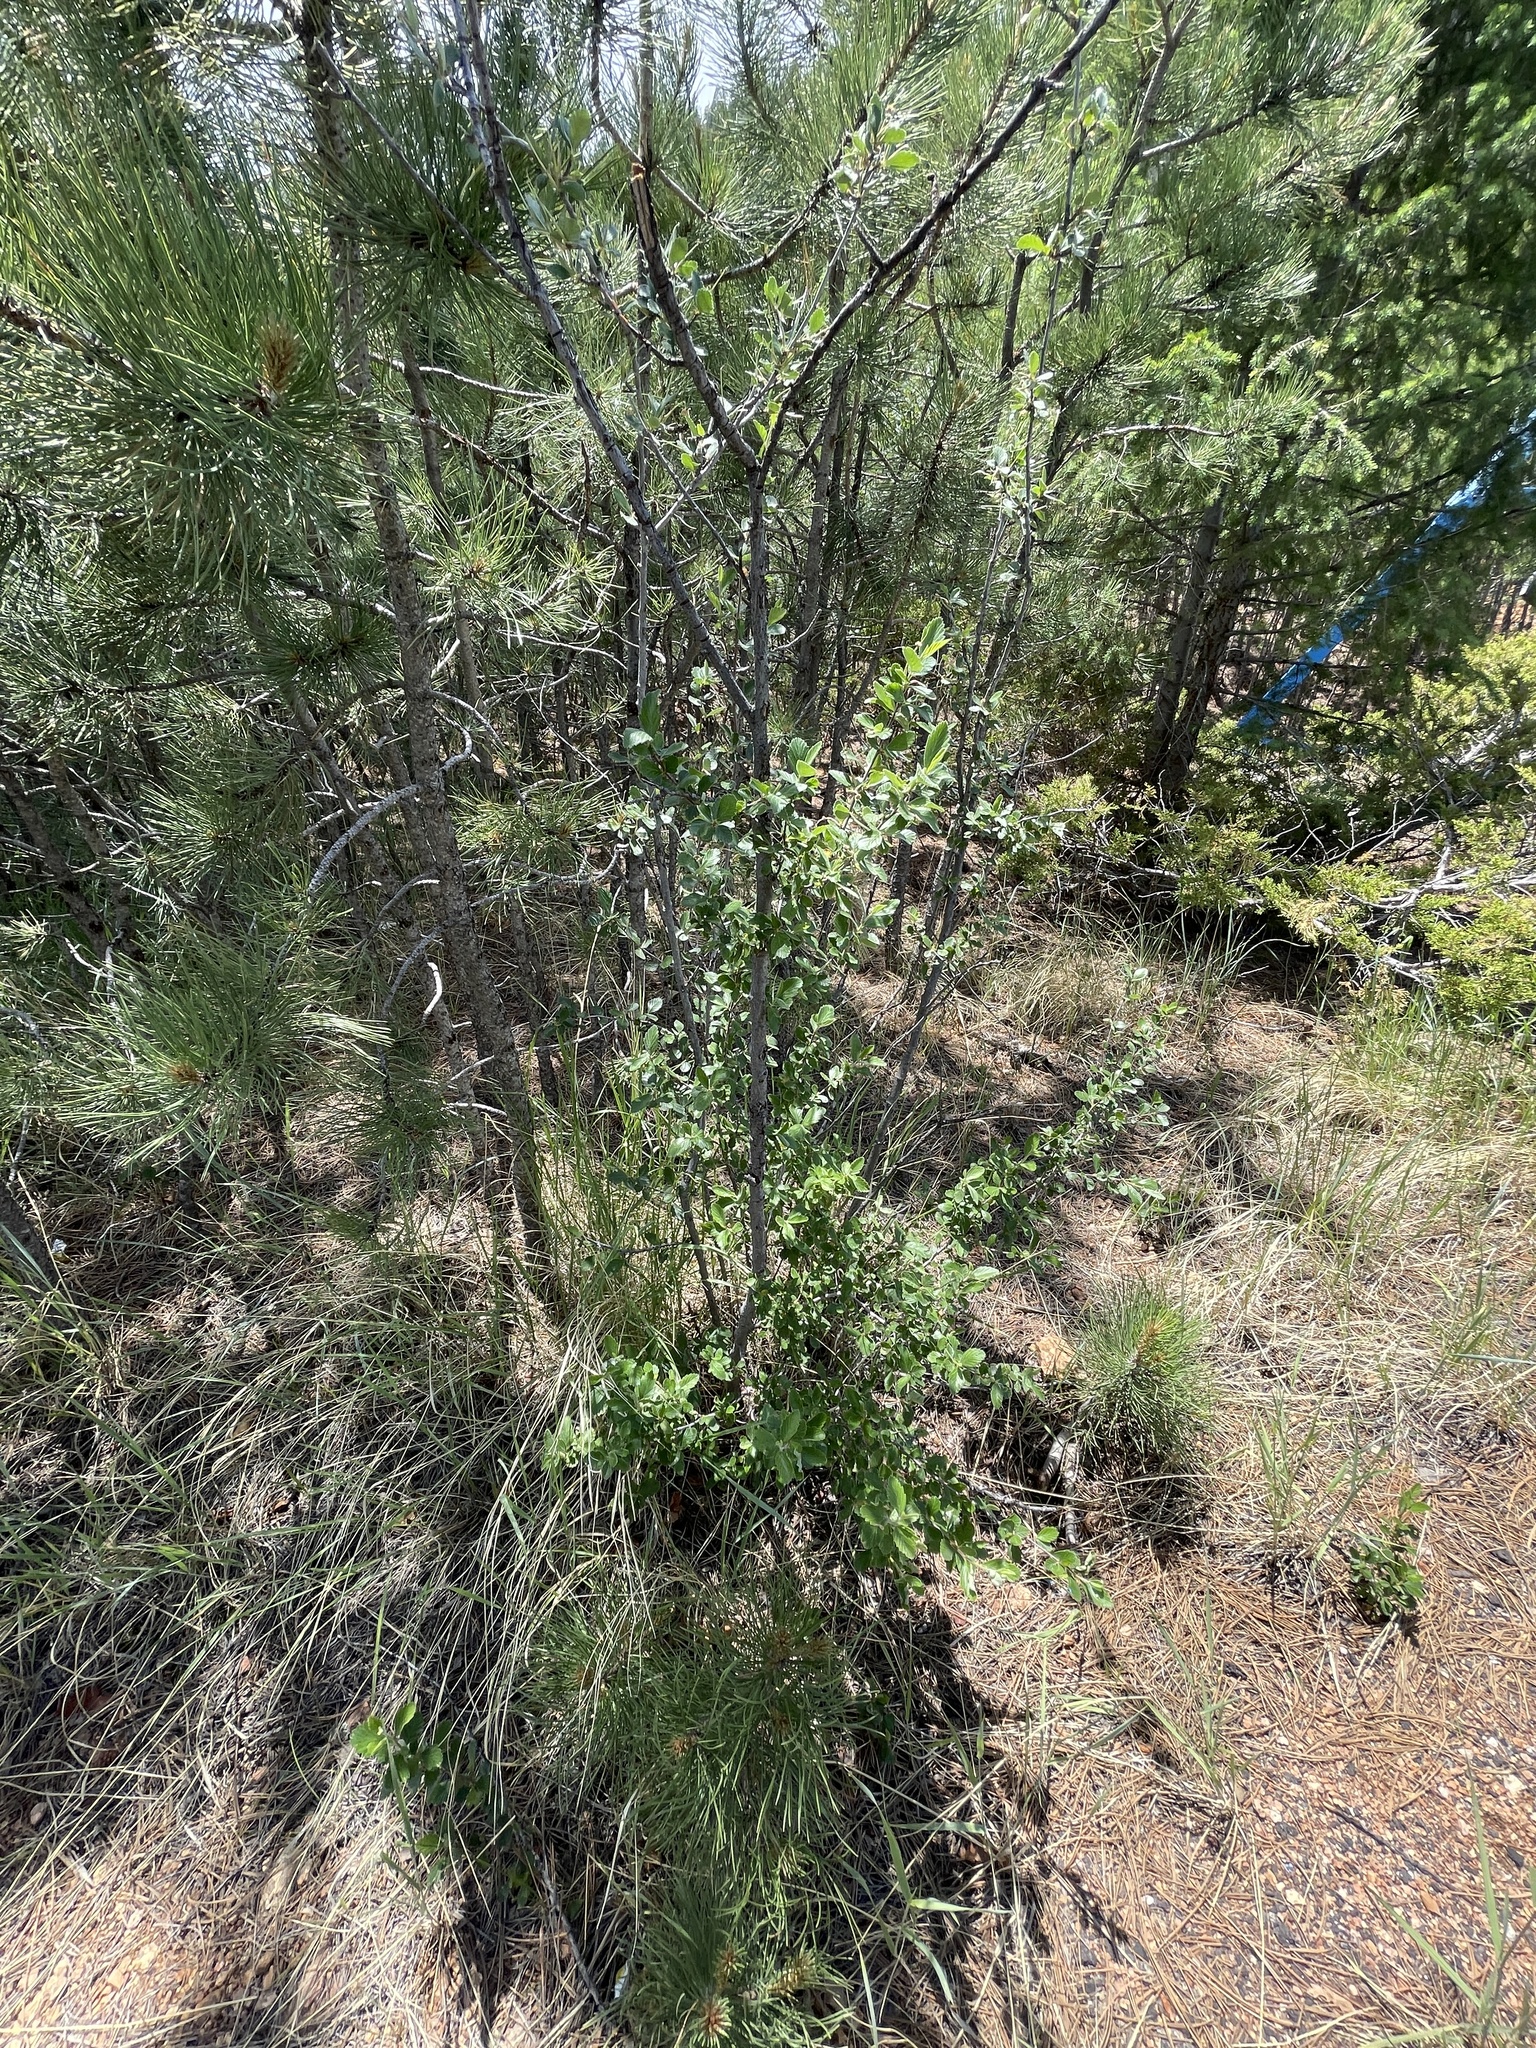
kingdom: Plantae
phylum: Tracheophyta
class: Magnoliopsida
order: Rosales
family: Rosaceae
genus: Cercocarpus
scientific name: Cercocarpus montanus
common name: Alder-leaf cercocarpus
